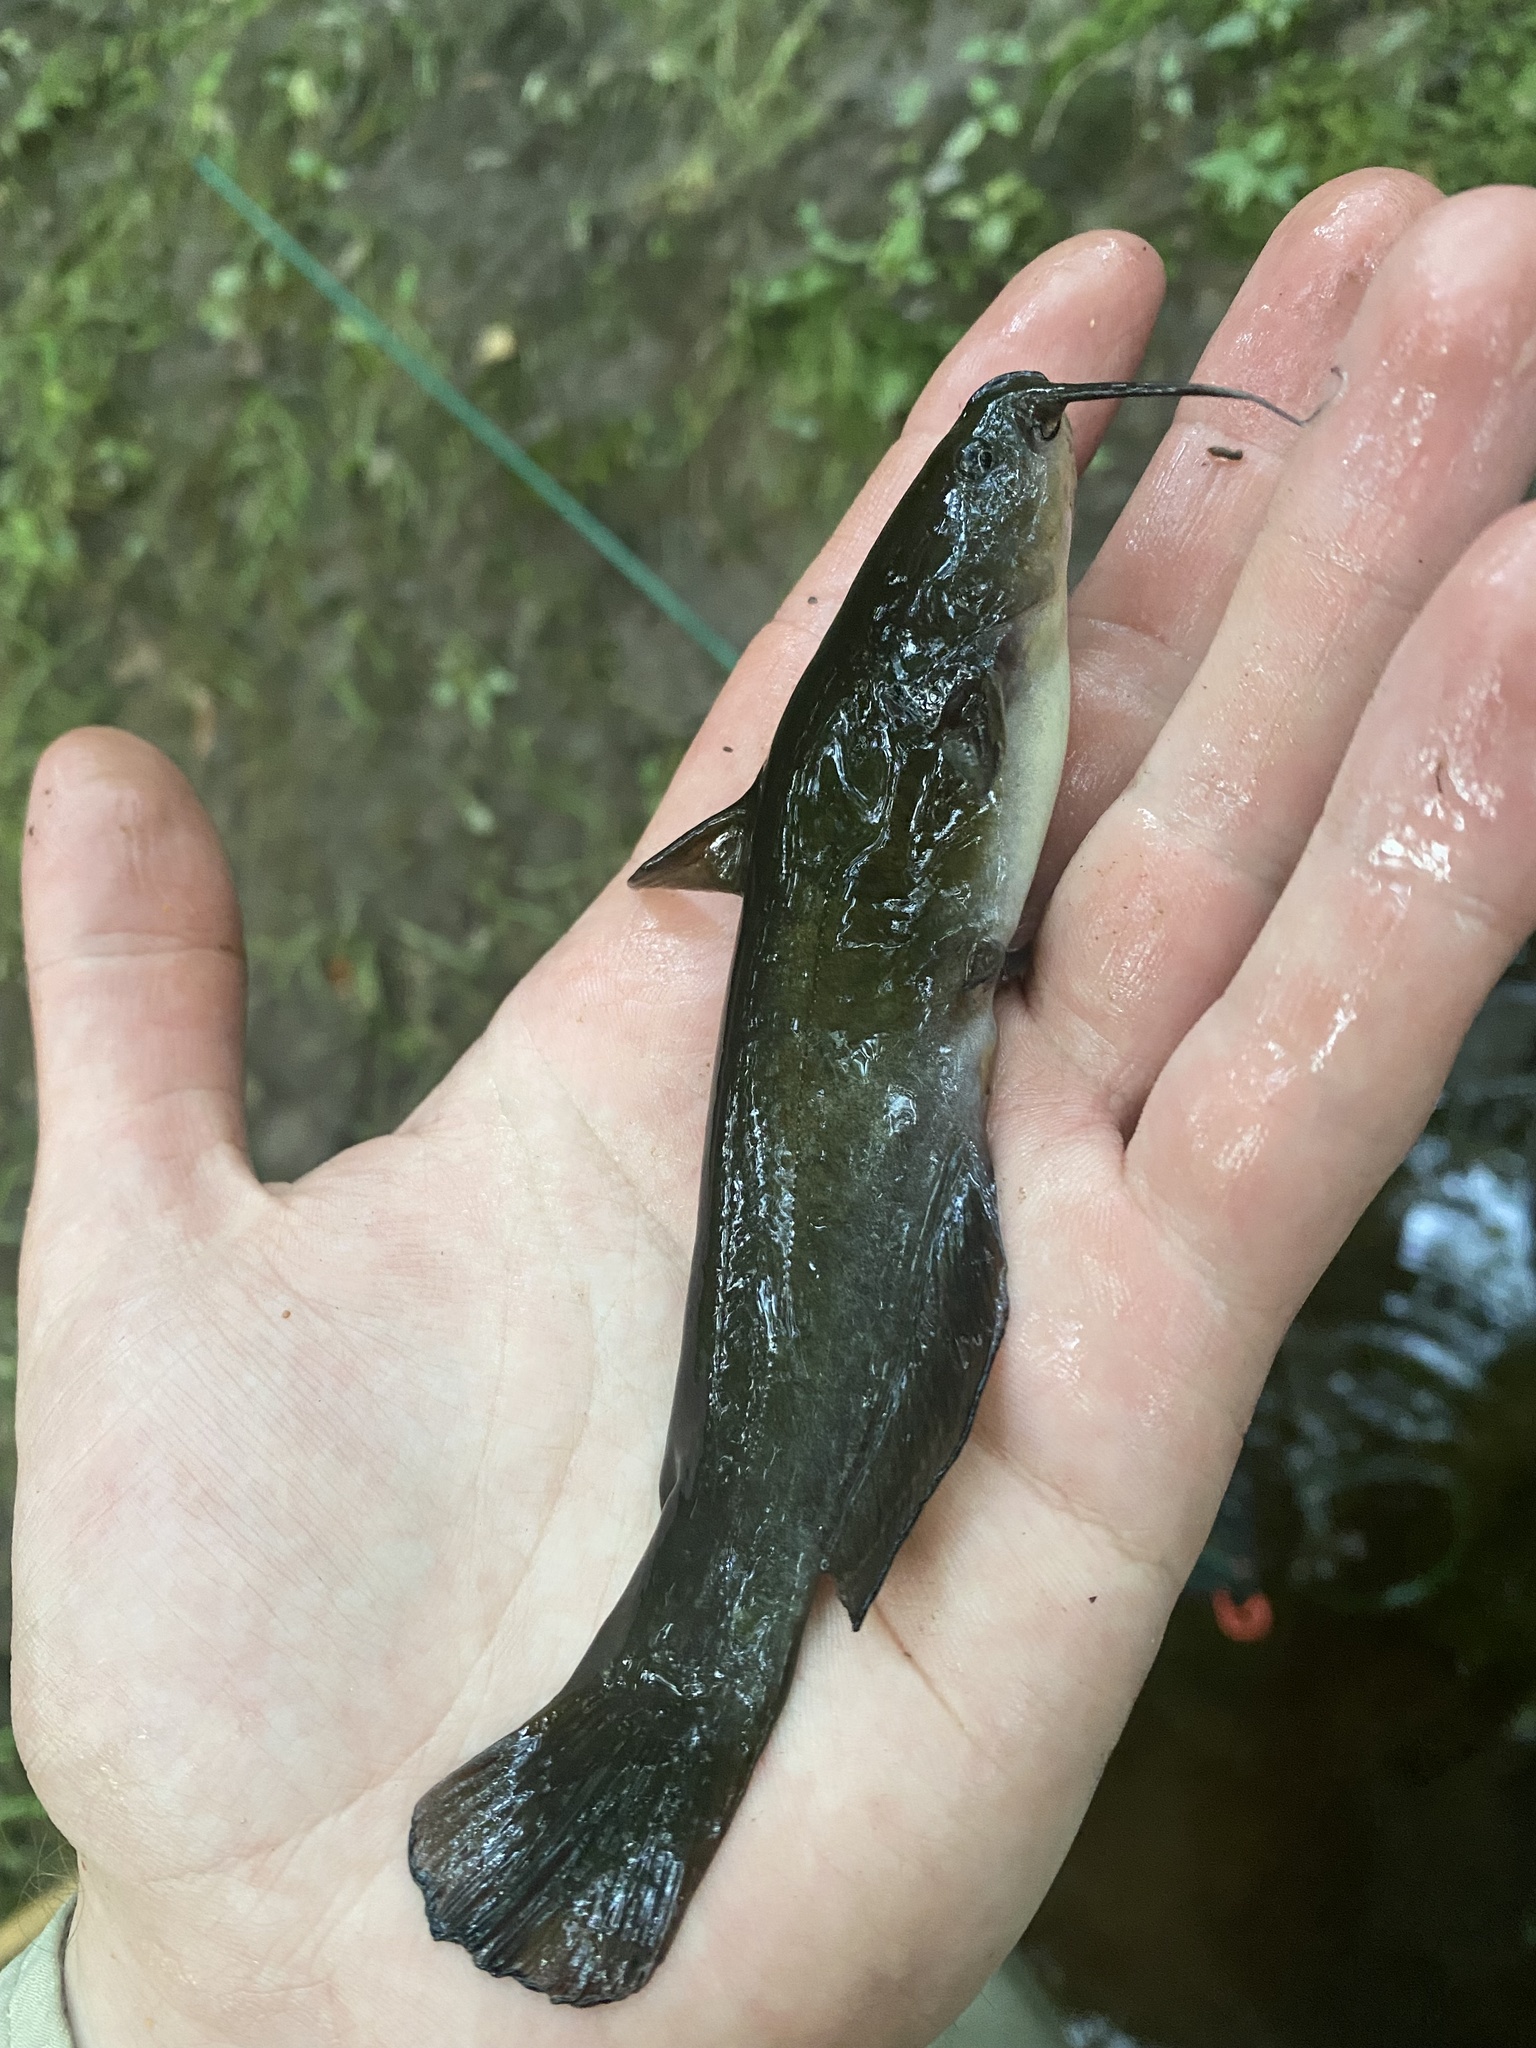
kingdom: Animalia
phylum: Chordata
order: Siluriformes
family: Ictaluridae
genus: Ameiurus
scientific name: Ameiurus natalis
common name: Yellow bullhead
